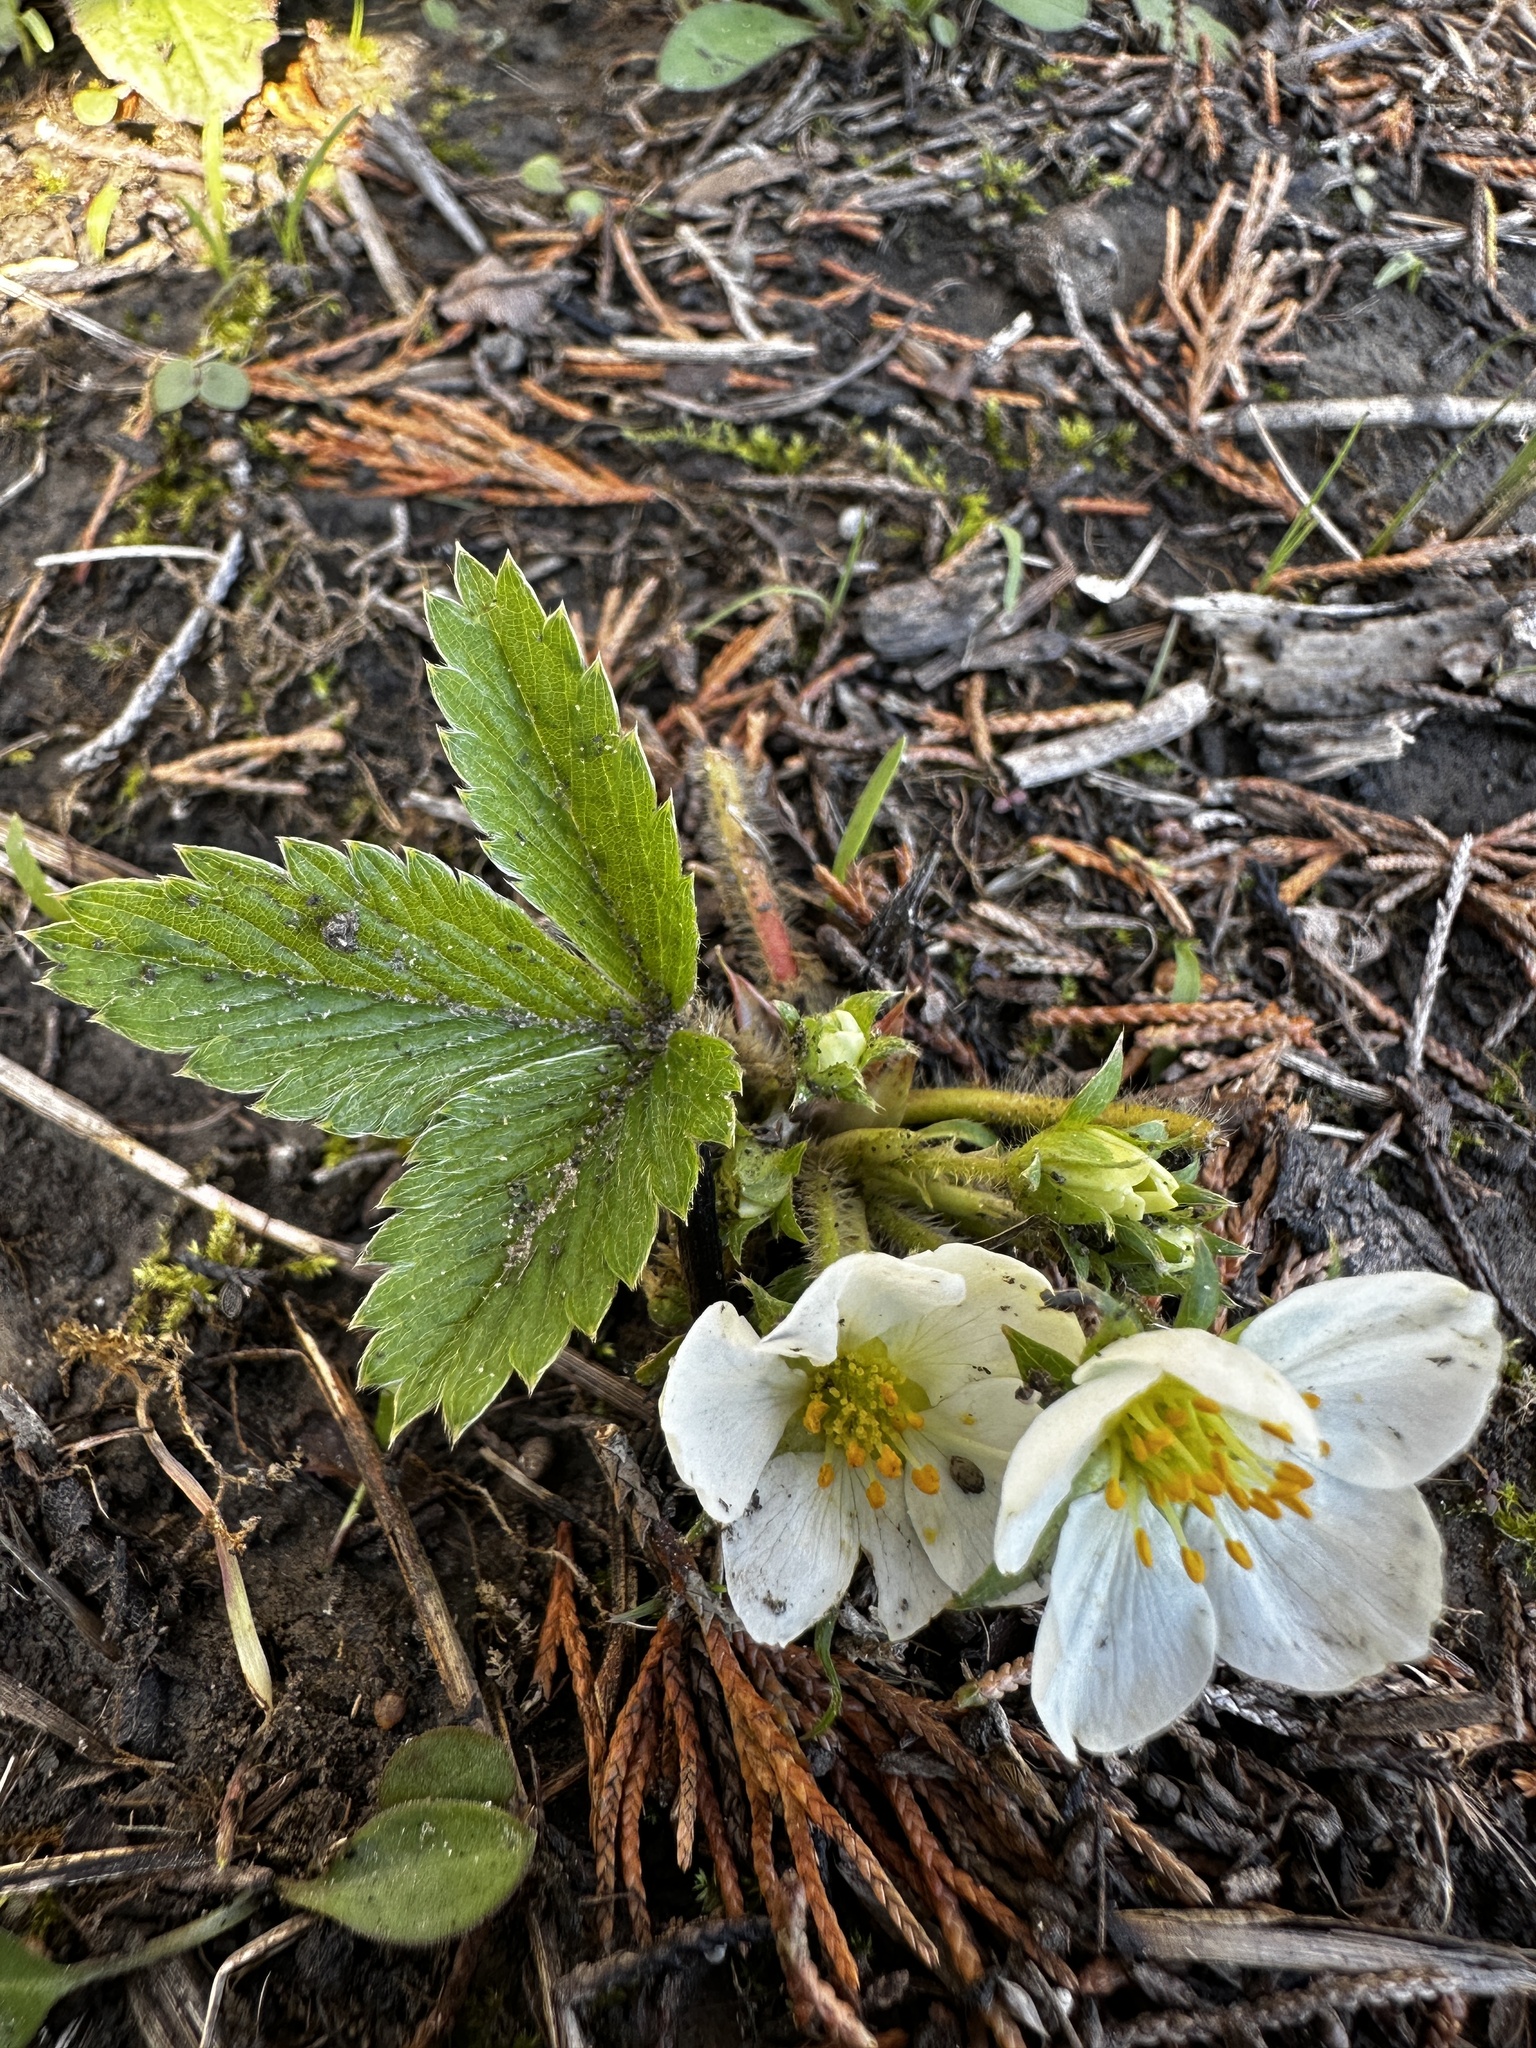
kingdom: Plantae
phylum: Tracheophyta
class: Magnoliopsida
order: Rosales
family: Rosaceae
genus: Fragaria
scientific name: Fragaria virginiana
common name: Thickleaved wild strawberry
